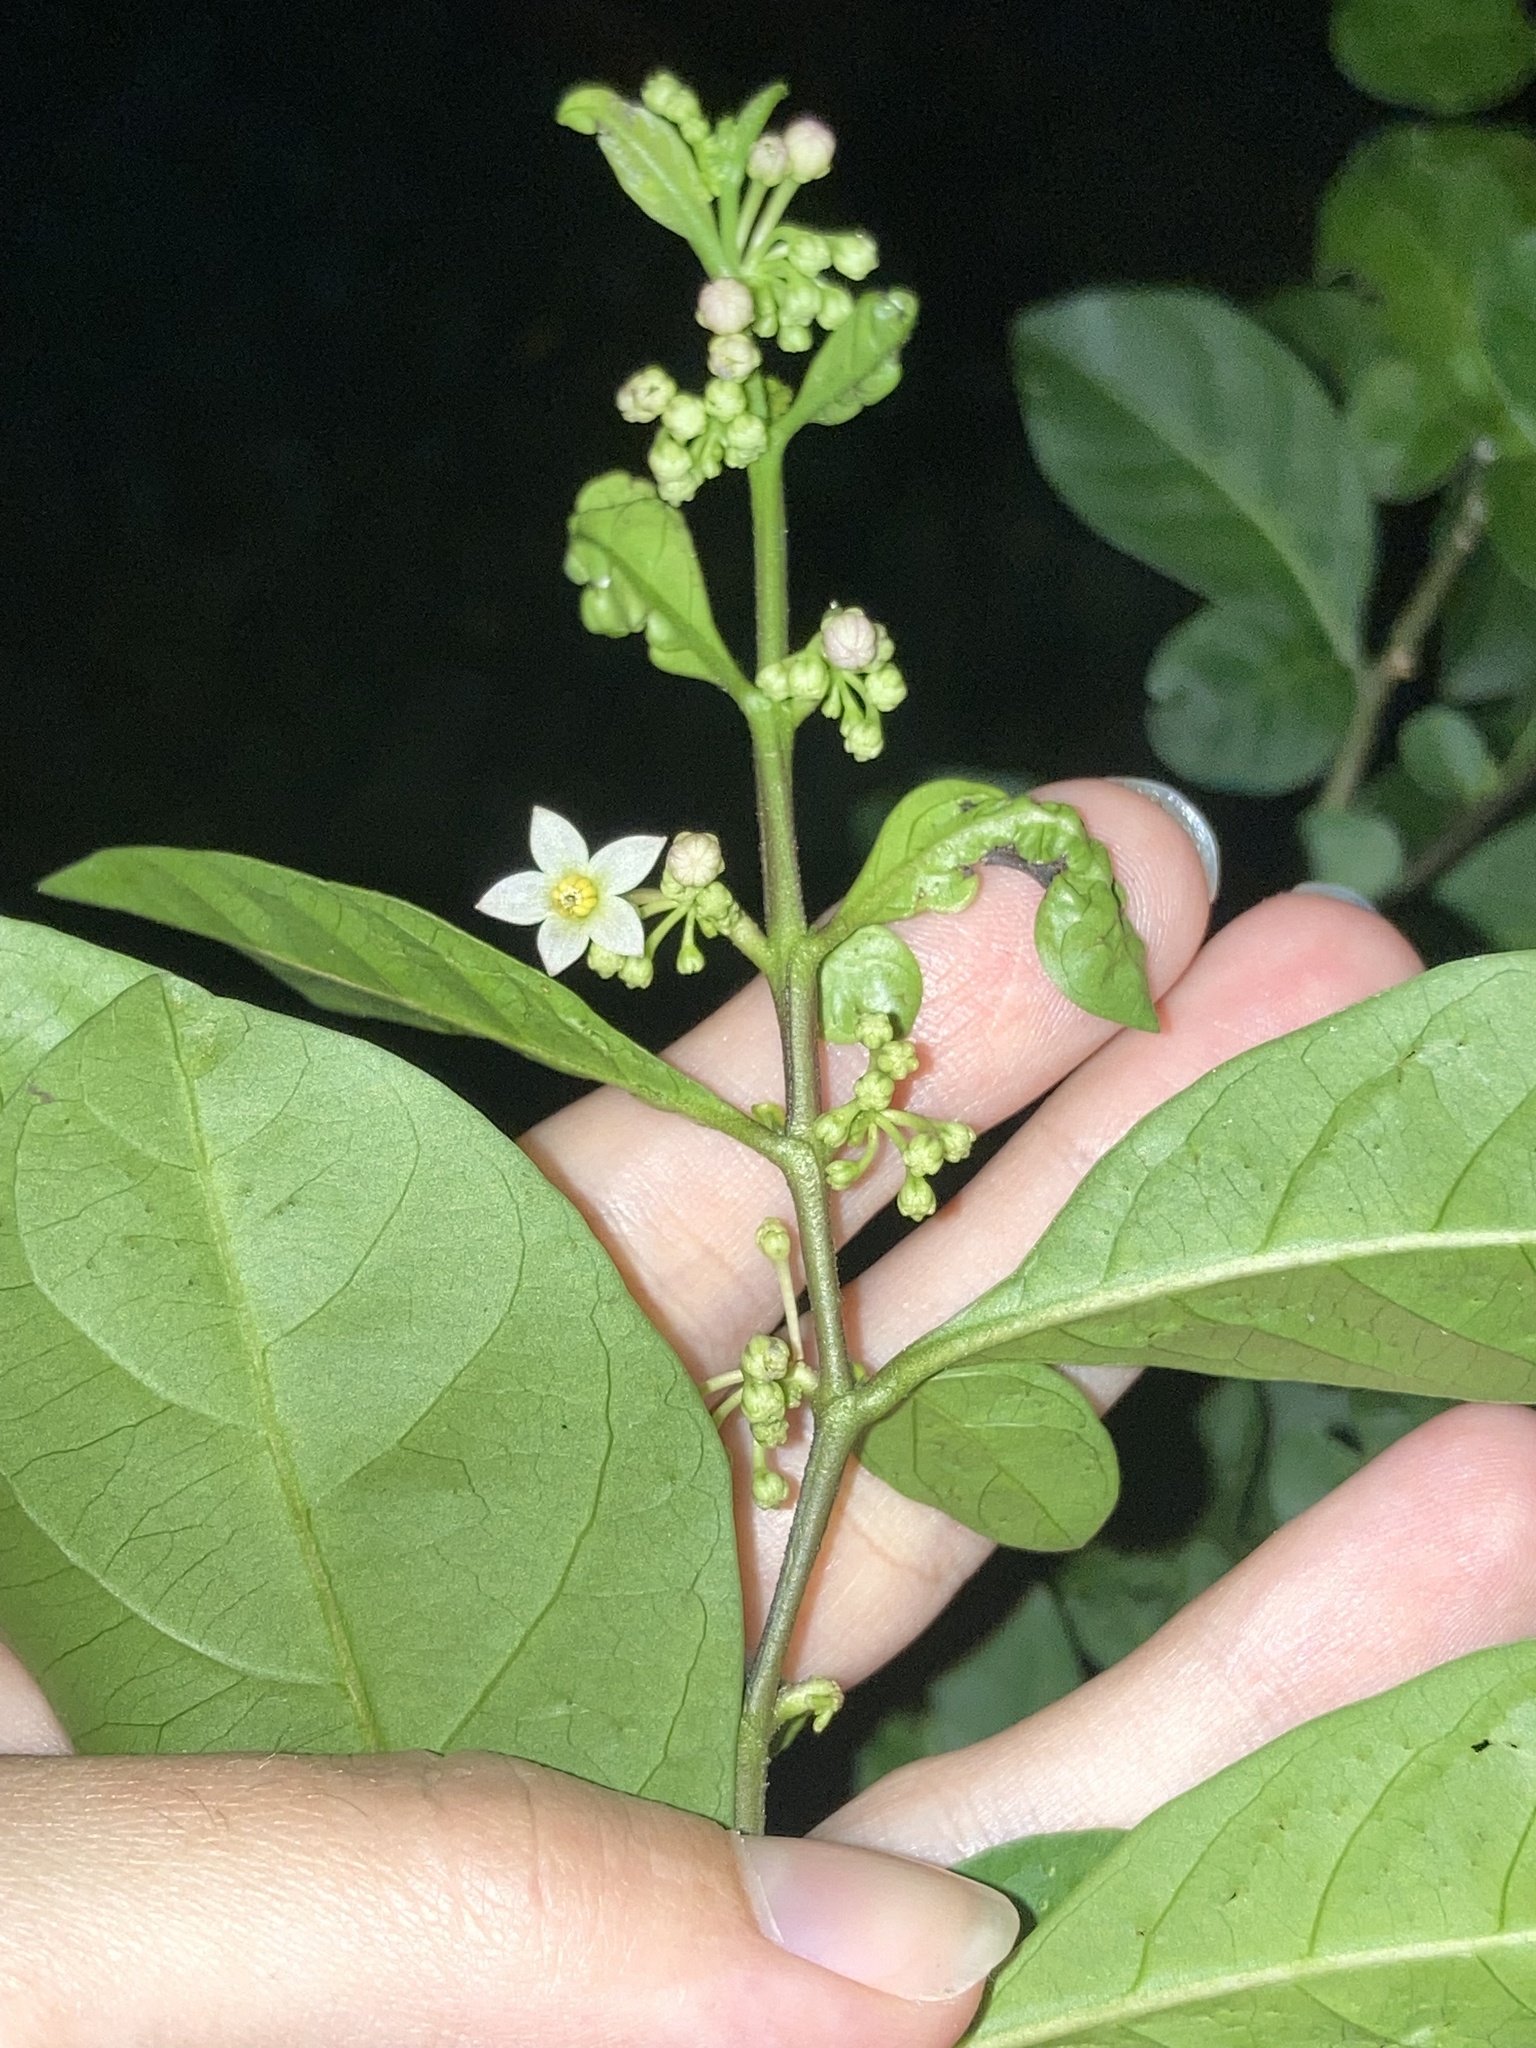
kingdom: Plantae
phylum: Tracheophyta
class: Magnoliopsida
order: Solanales
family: Solanaceae
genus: Solanum
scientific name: Solanum diphyllum
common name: Twoleaf nightshade
